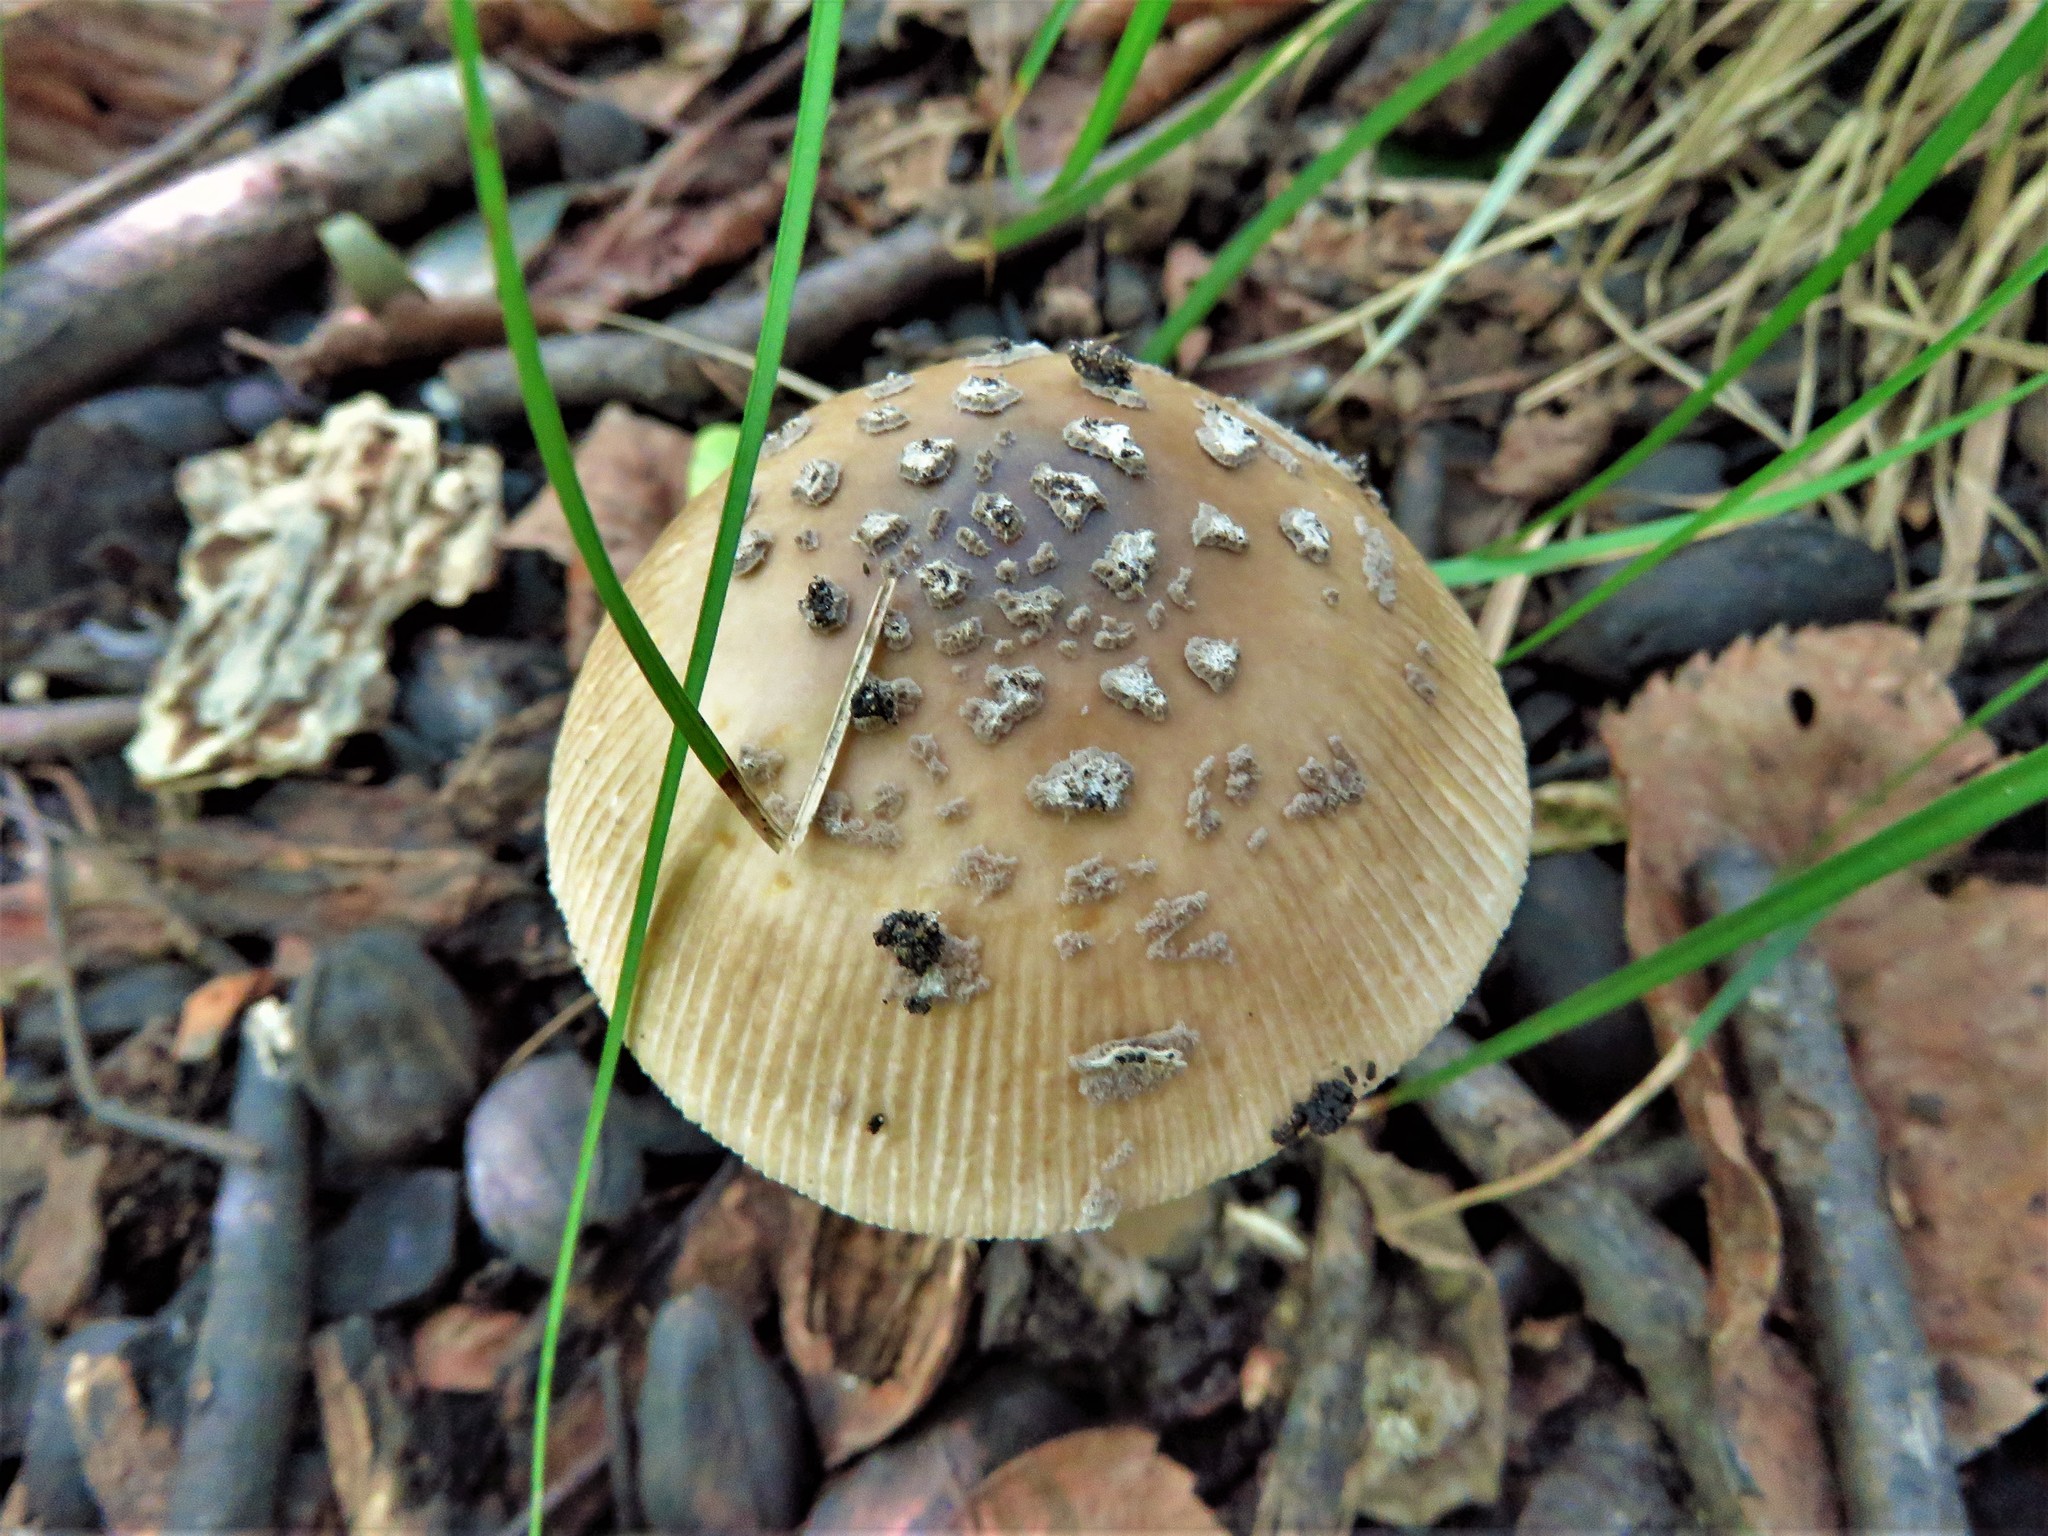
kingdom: Fungi
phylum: Basidiomycota
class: Agaricomycetes
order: Agaricales
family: Amanitaceae
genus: Amanita
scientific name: Amanita rhacopus
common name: Shaggy legged ringless amanita
